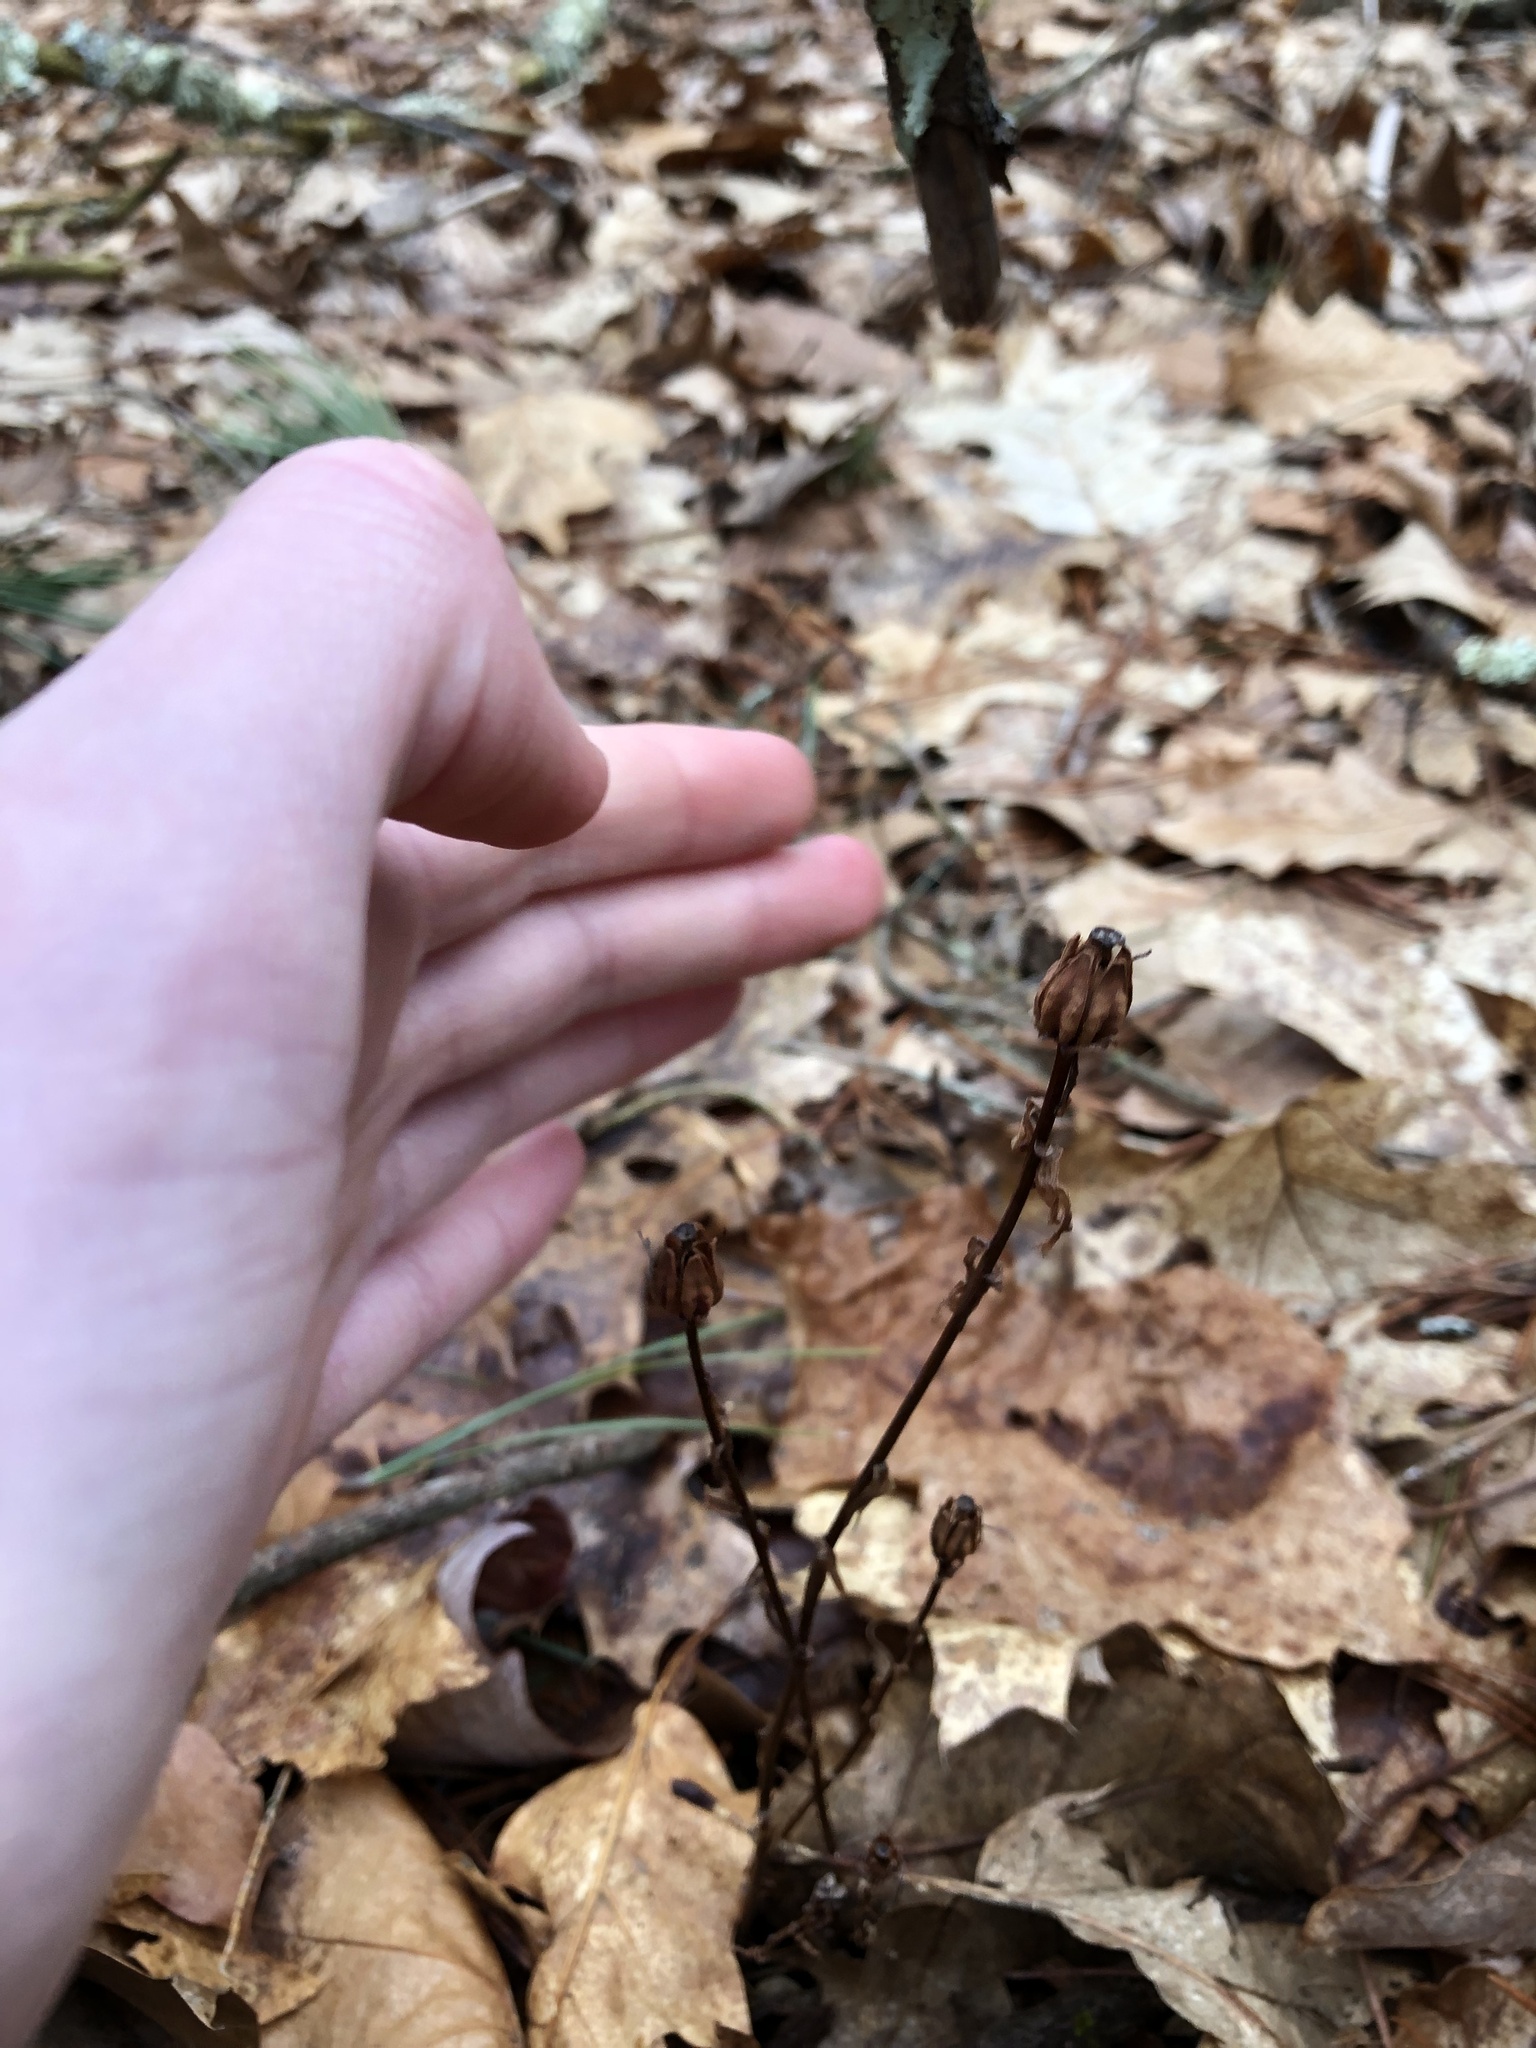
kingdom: Plantae
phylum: Tracheophyta
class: Magnoliopsida
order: Ericales
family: Ericaceae
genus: Monotropa
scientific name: Monotropa uniflora
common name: Convulsion root
